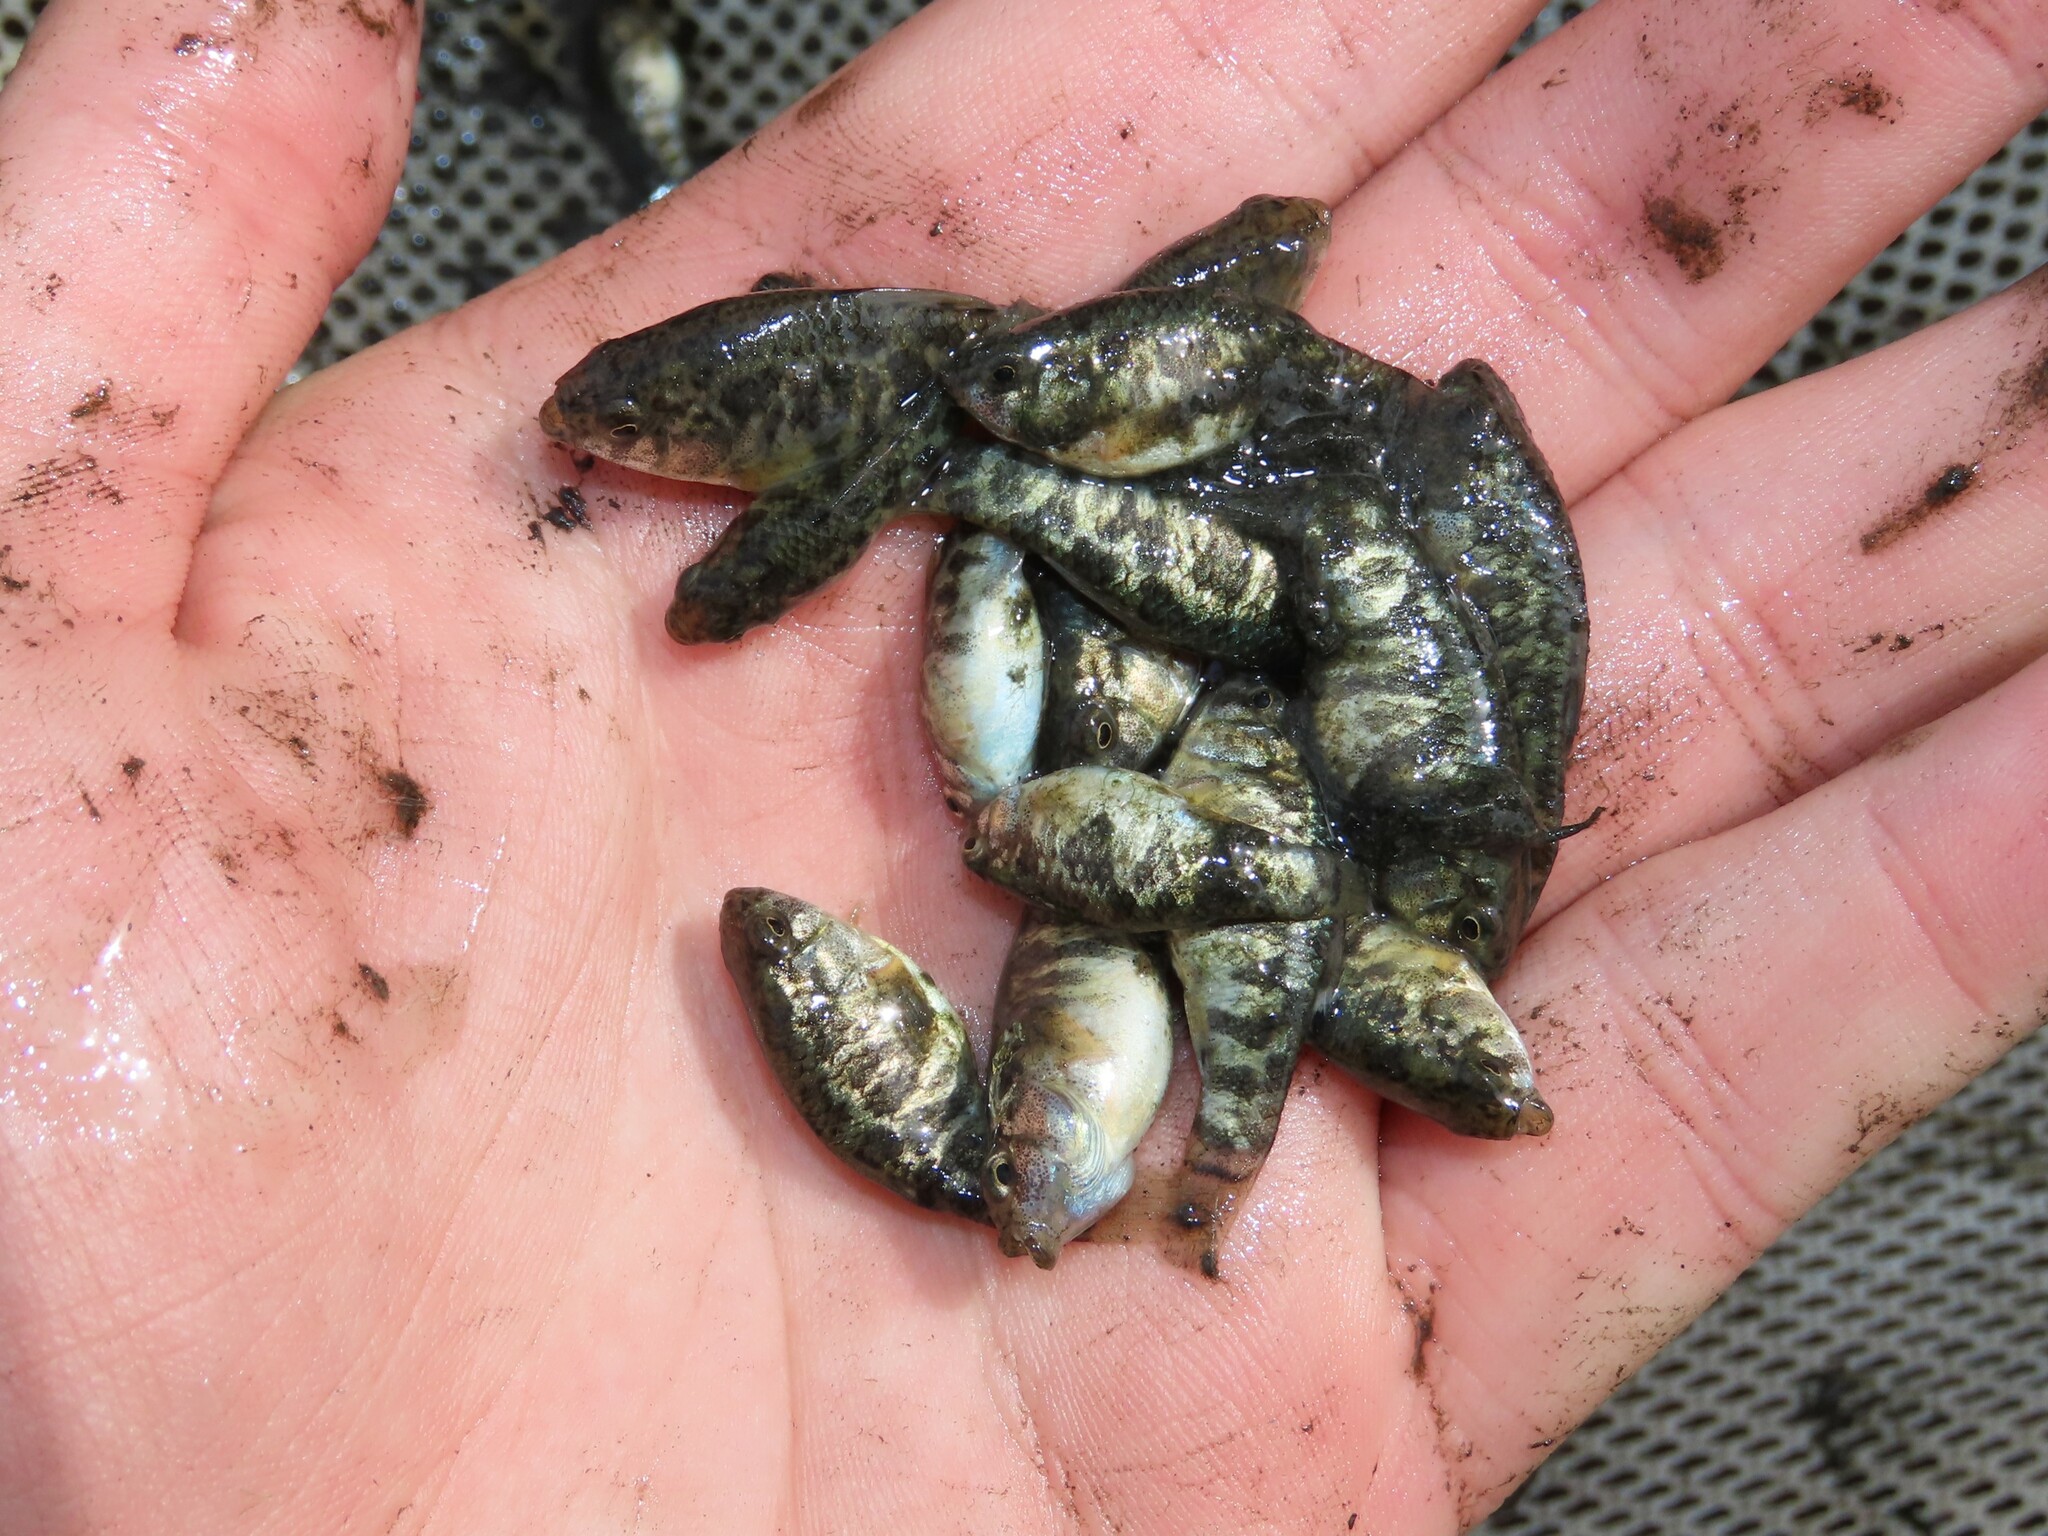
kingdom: Animalia
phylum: Chordata
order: Cyprinodontiformes
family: Cyprinodontidae
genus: Cyprinodon
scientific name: Cyprinodon variegatus
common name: Sheepshead minnow
